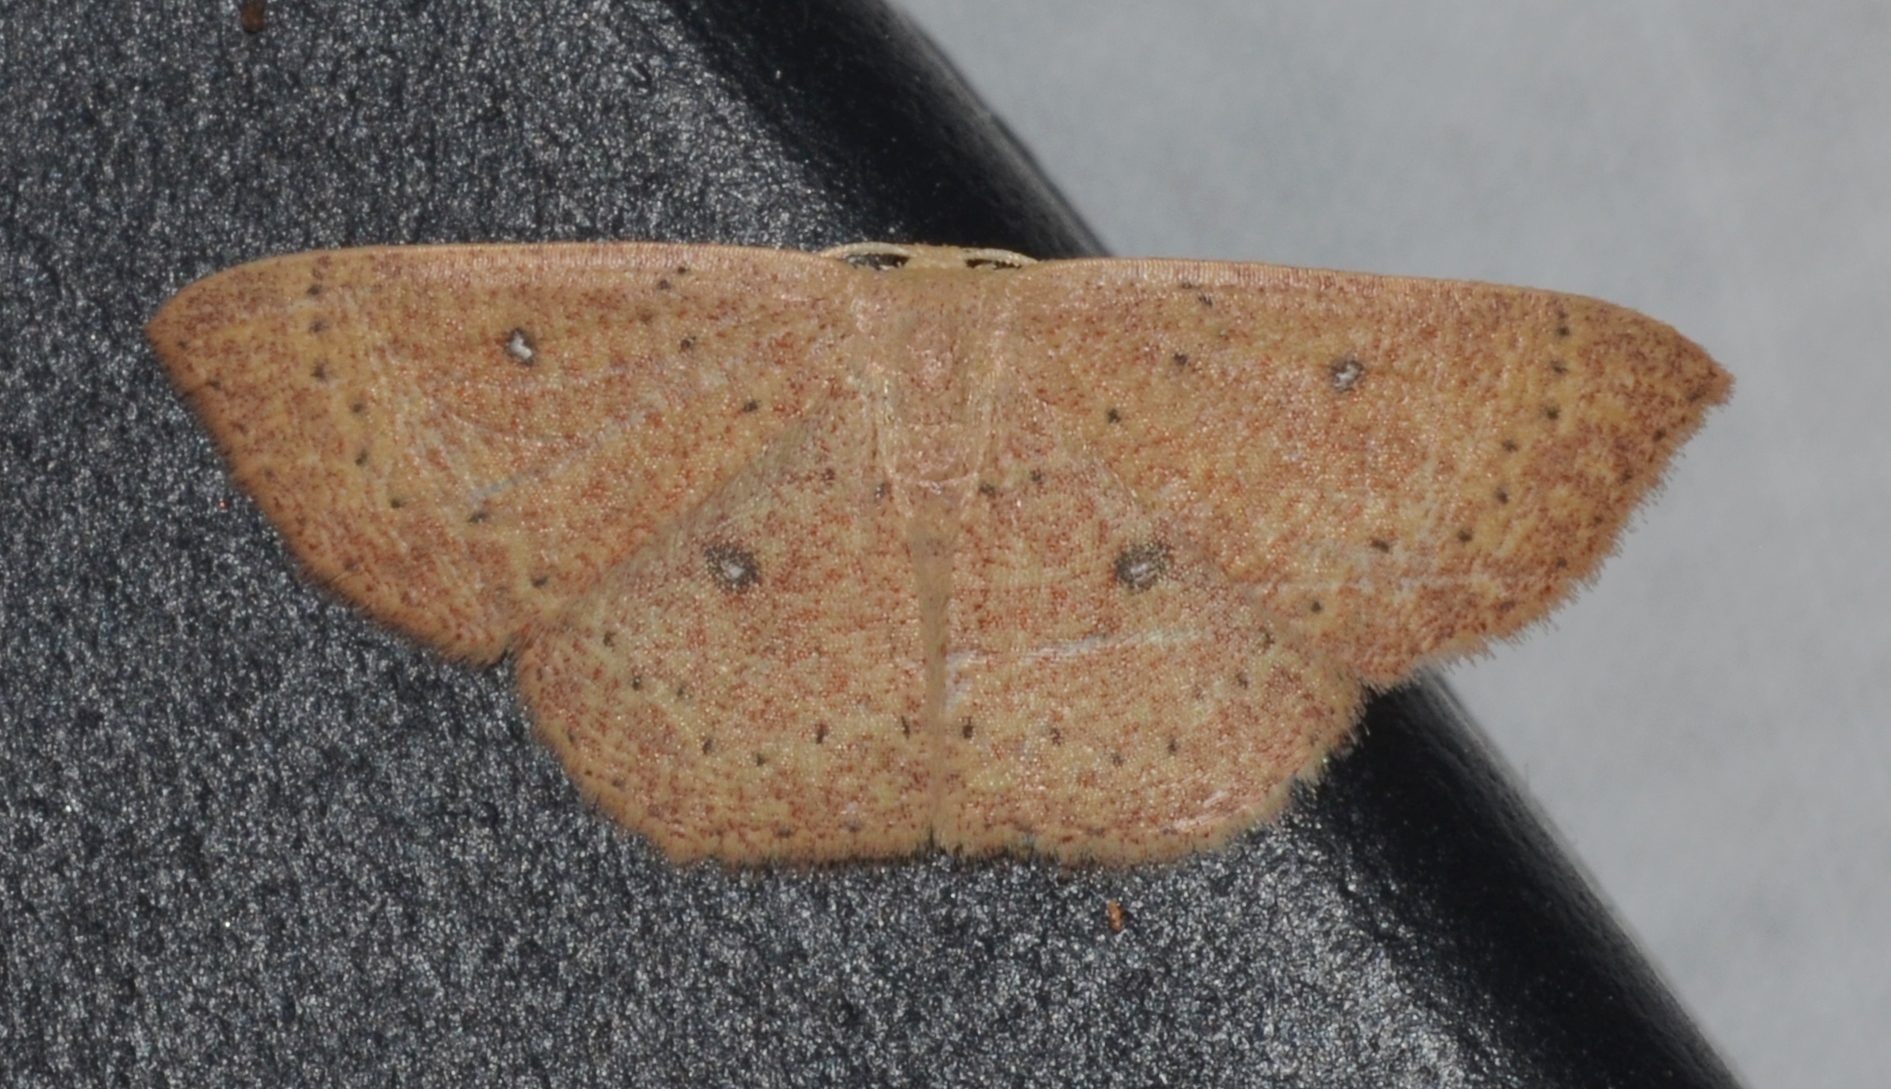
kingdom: Animalia
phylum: Arthropoda
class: Insecta
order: Lepidoptera
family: Geometridae
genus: Cyclophora
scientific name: Cyclophora packardi
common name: Packard's wave
